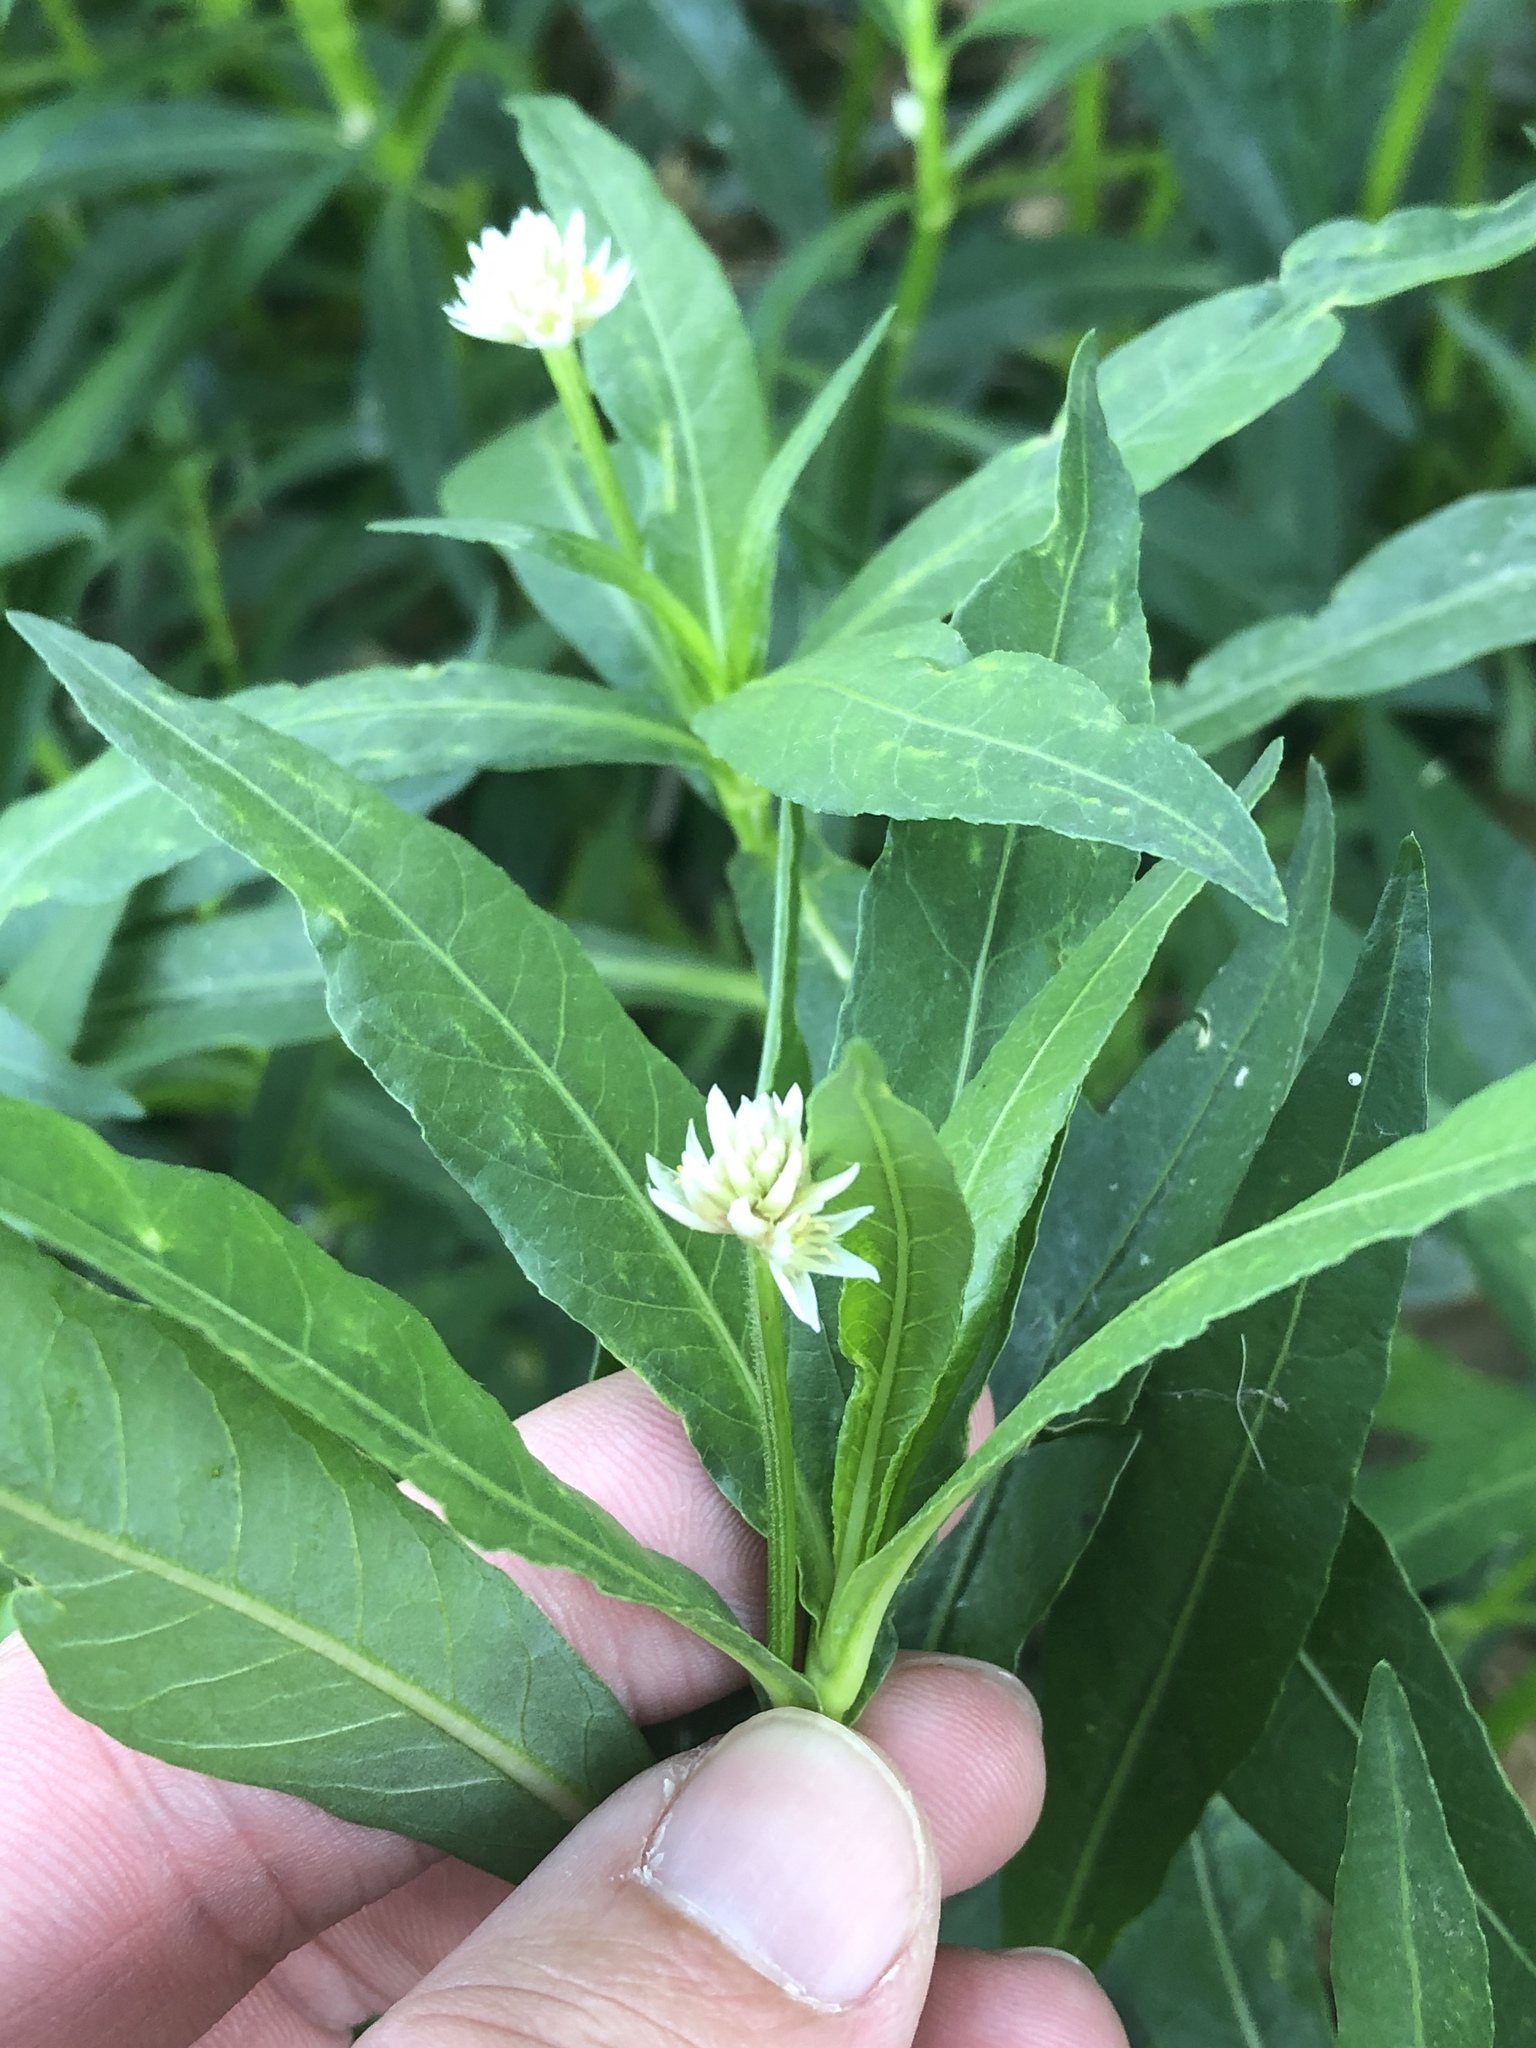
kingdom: Plantae
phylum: Tracheophyta
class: Magnoliopsida
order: Caryophyllales
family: Amaranthaceae
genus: Alternanthera
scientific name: Alternanthera philoxeroides
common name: Alligatorweed
